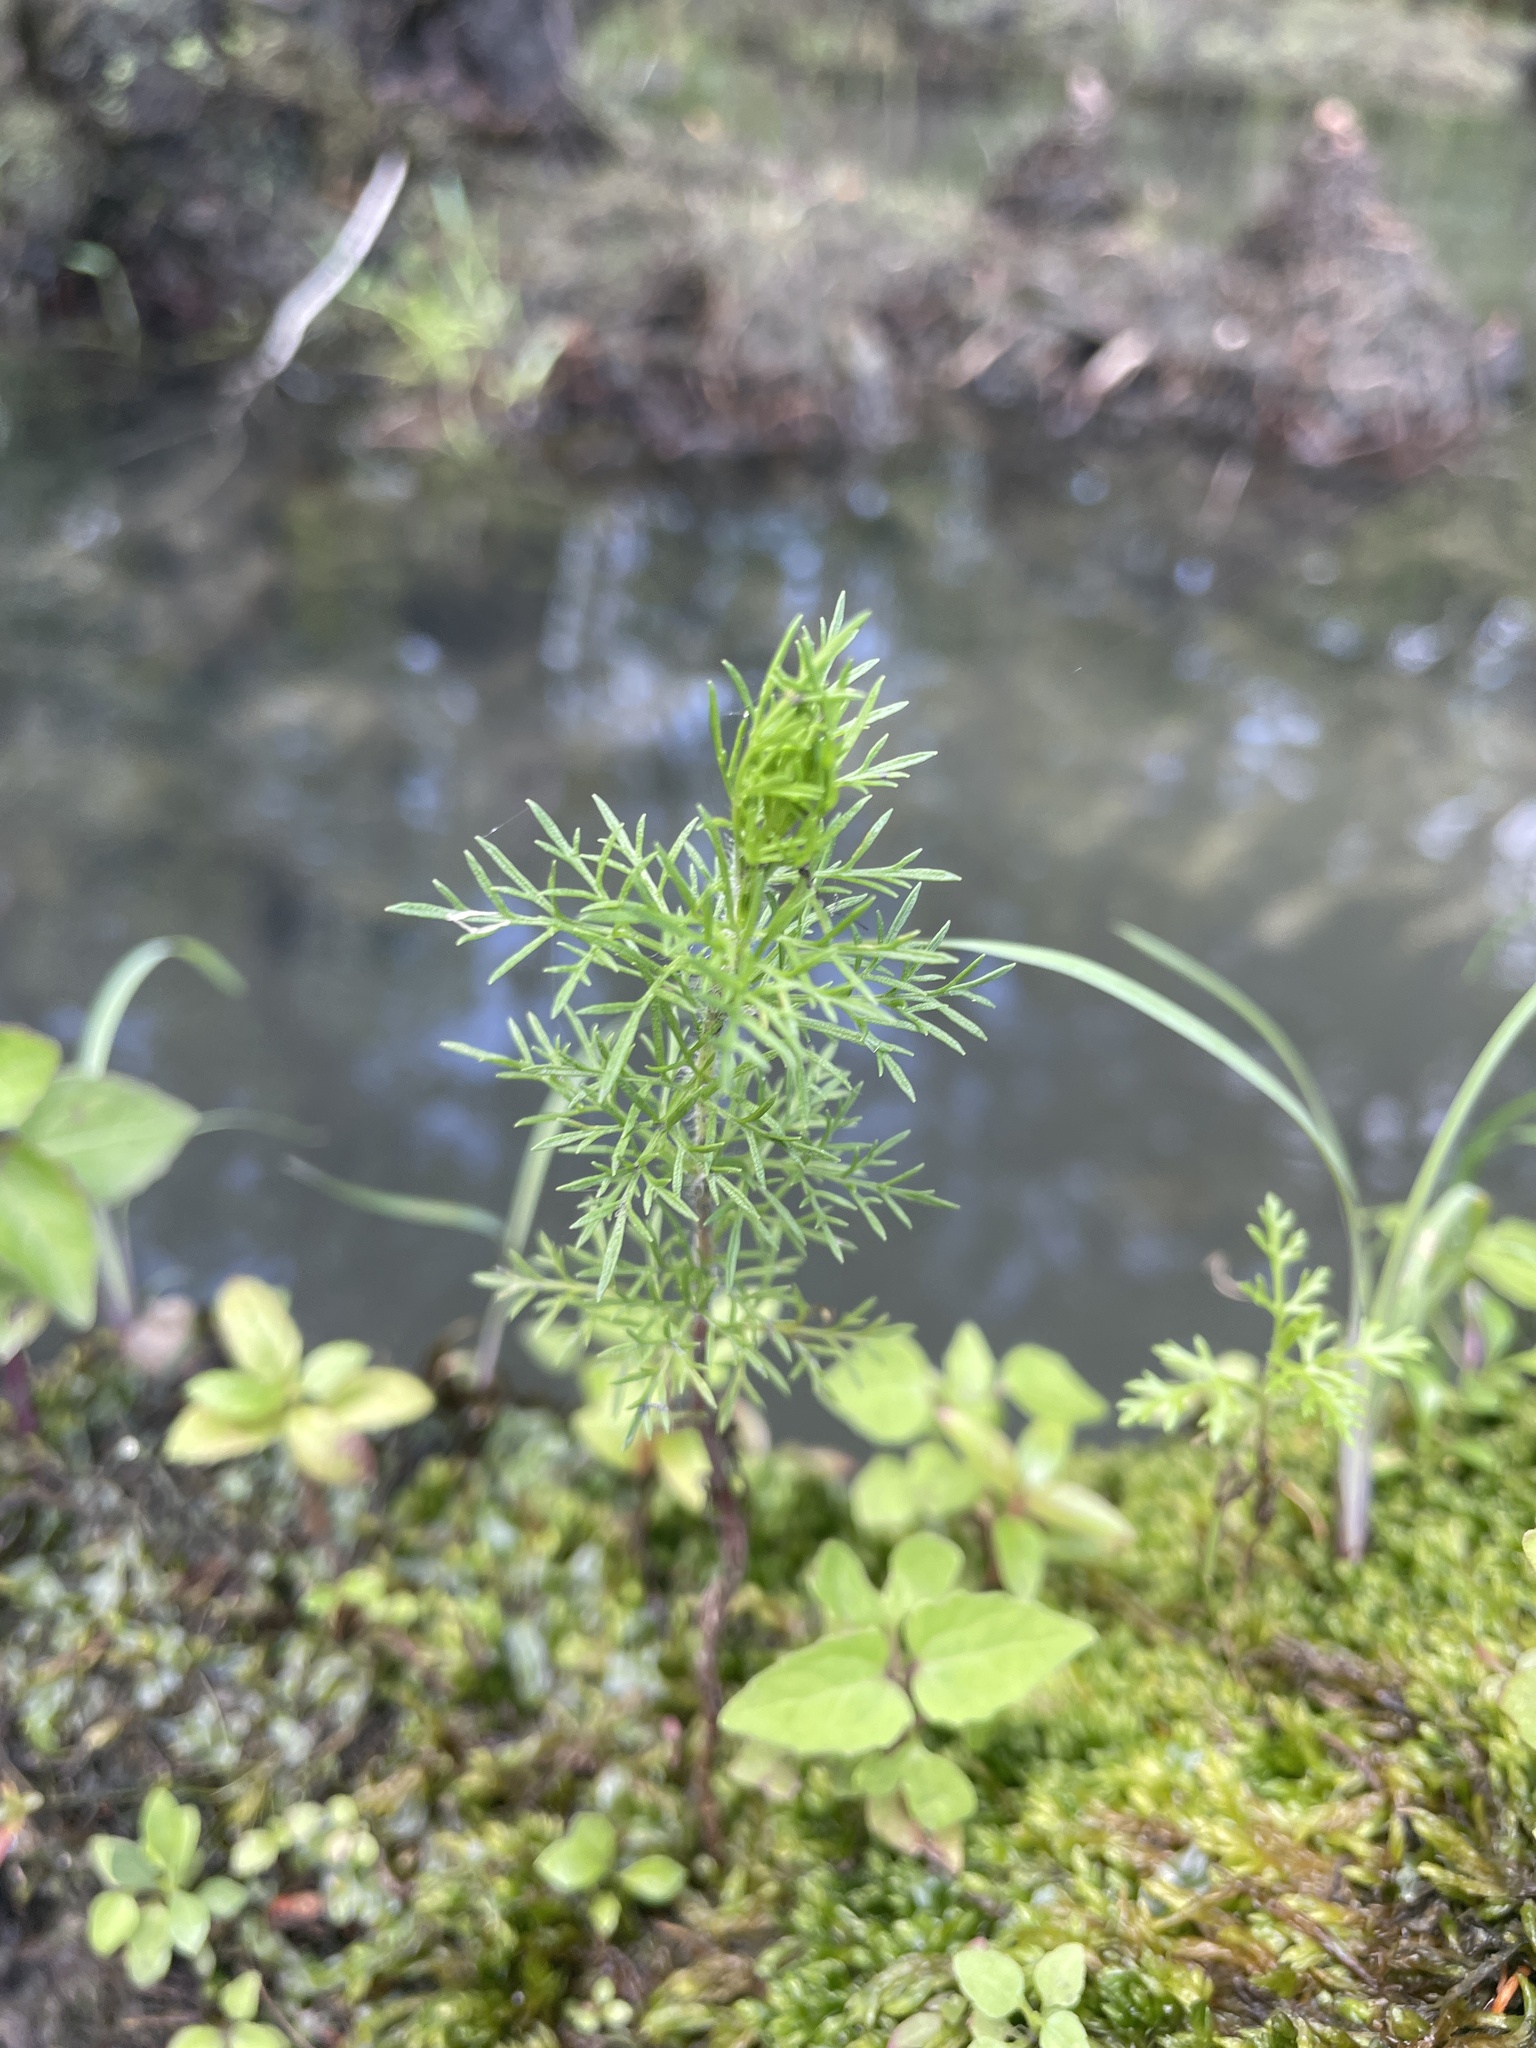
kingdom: Plantae
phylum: Tracheophyta
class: Magnoliopsida
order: Asterales
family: Asteraceae
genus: Eupatorium
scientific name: Eupatorium capillifolium
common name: Dog-fennel
